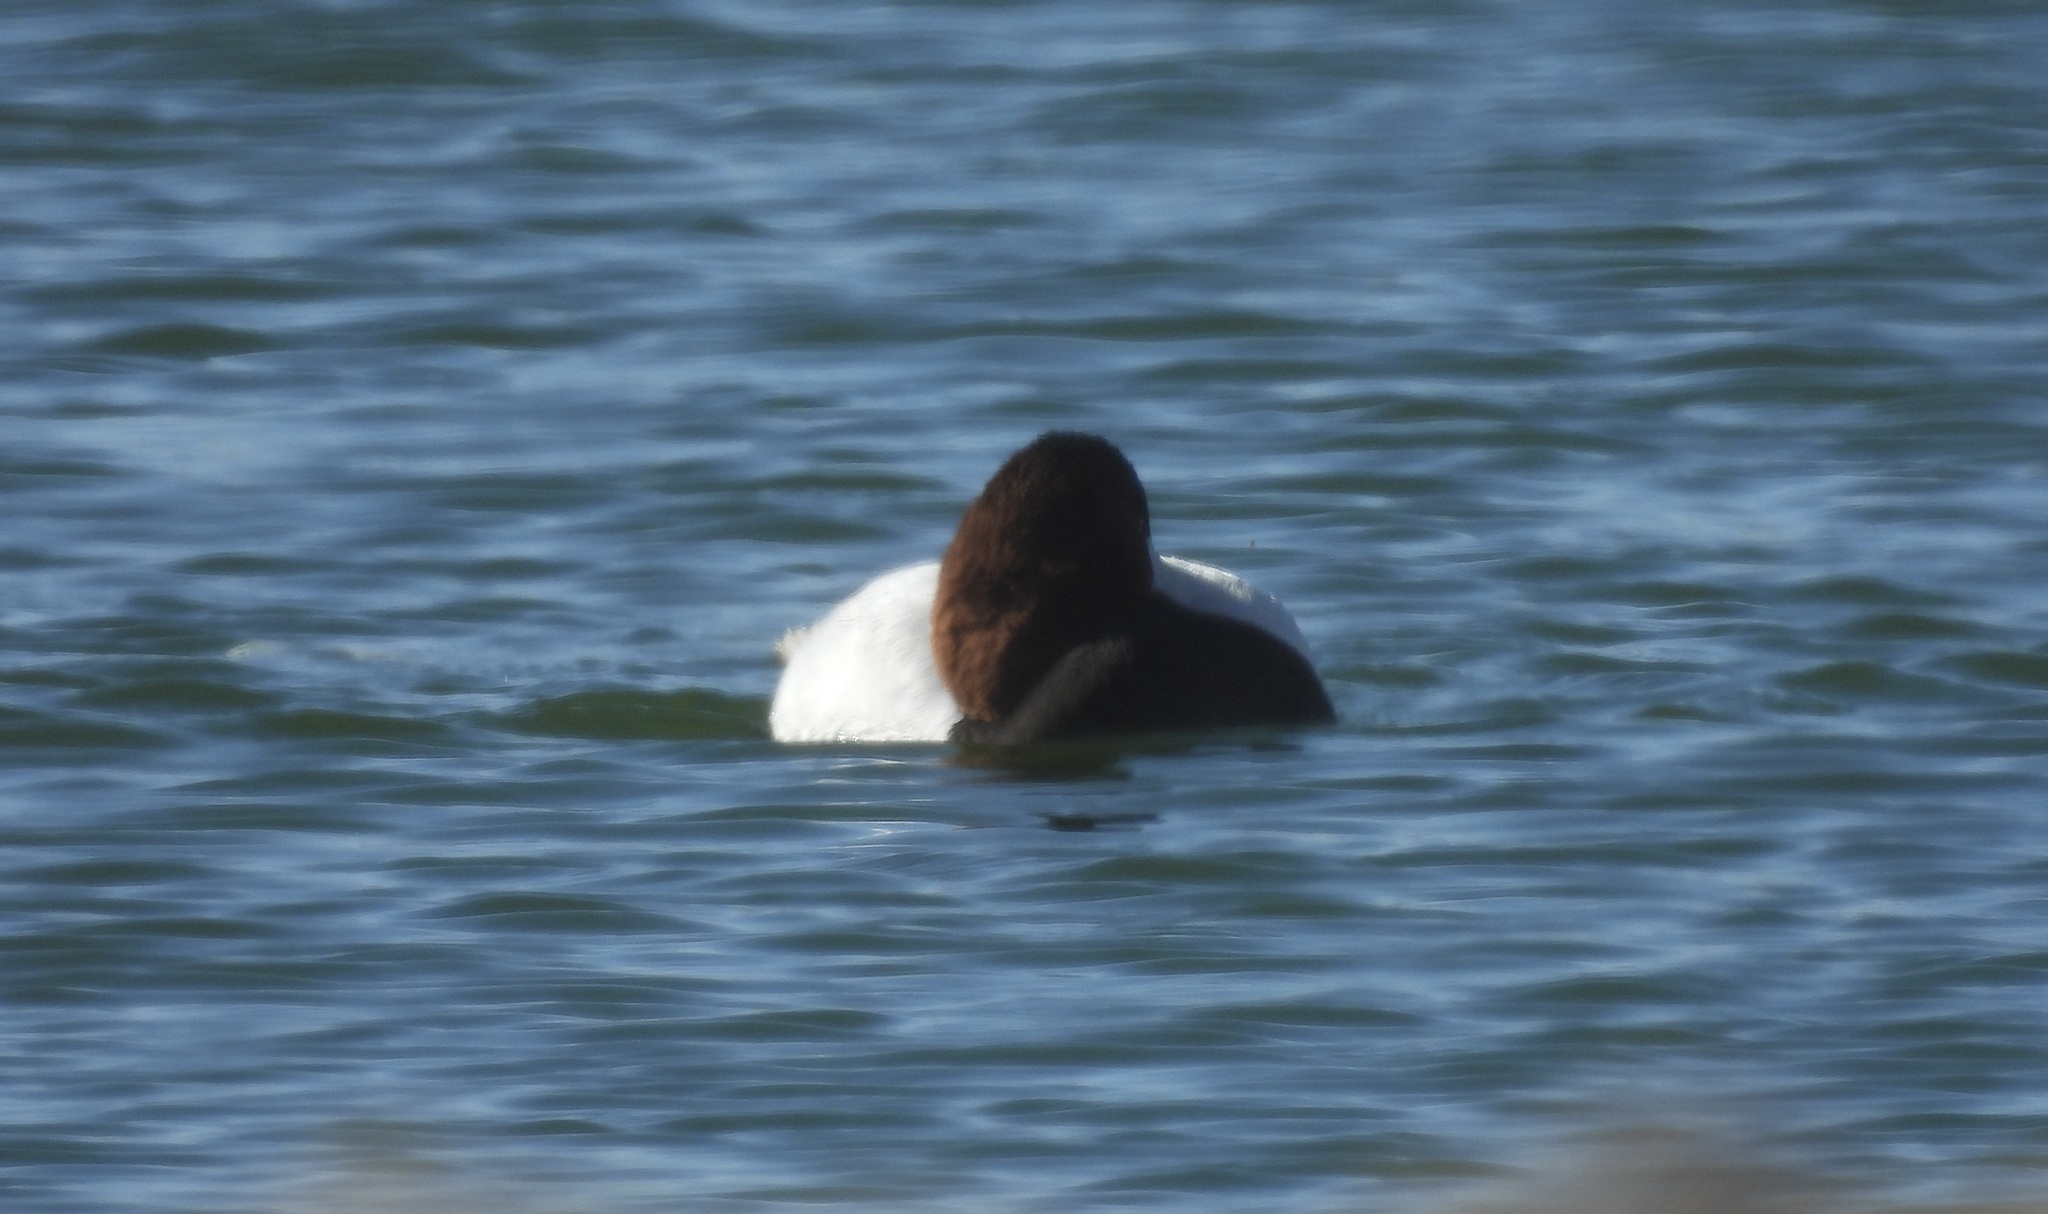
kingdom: Animalia
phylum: Chordata
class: Aves
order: Anseriformes
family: Anatidae
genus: Aythya
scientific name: Aythya valisineria
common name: Canvasback
